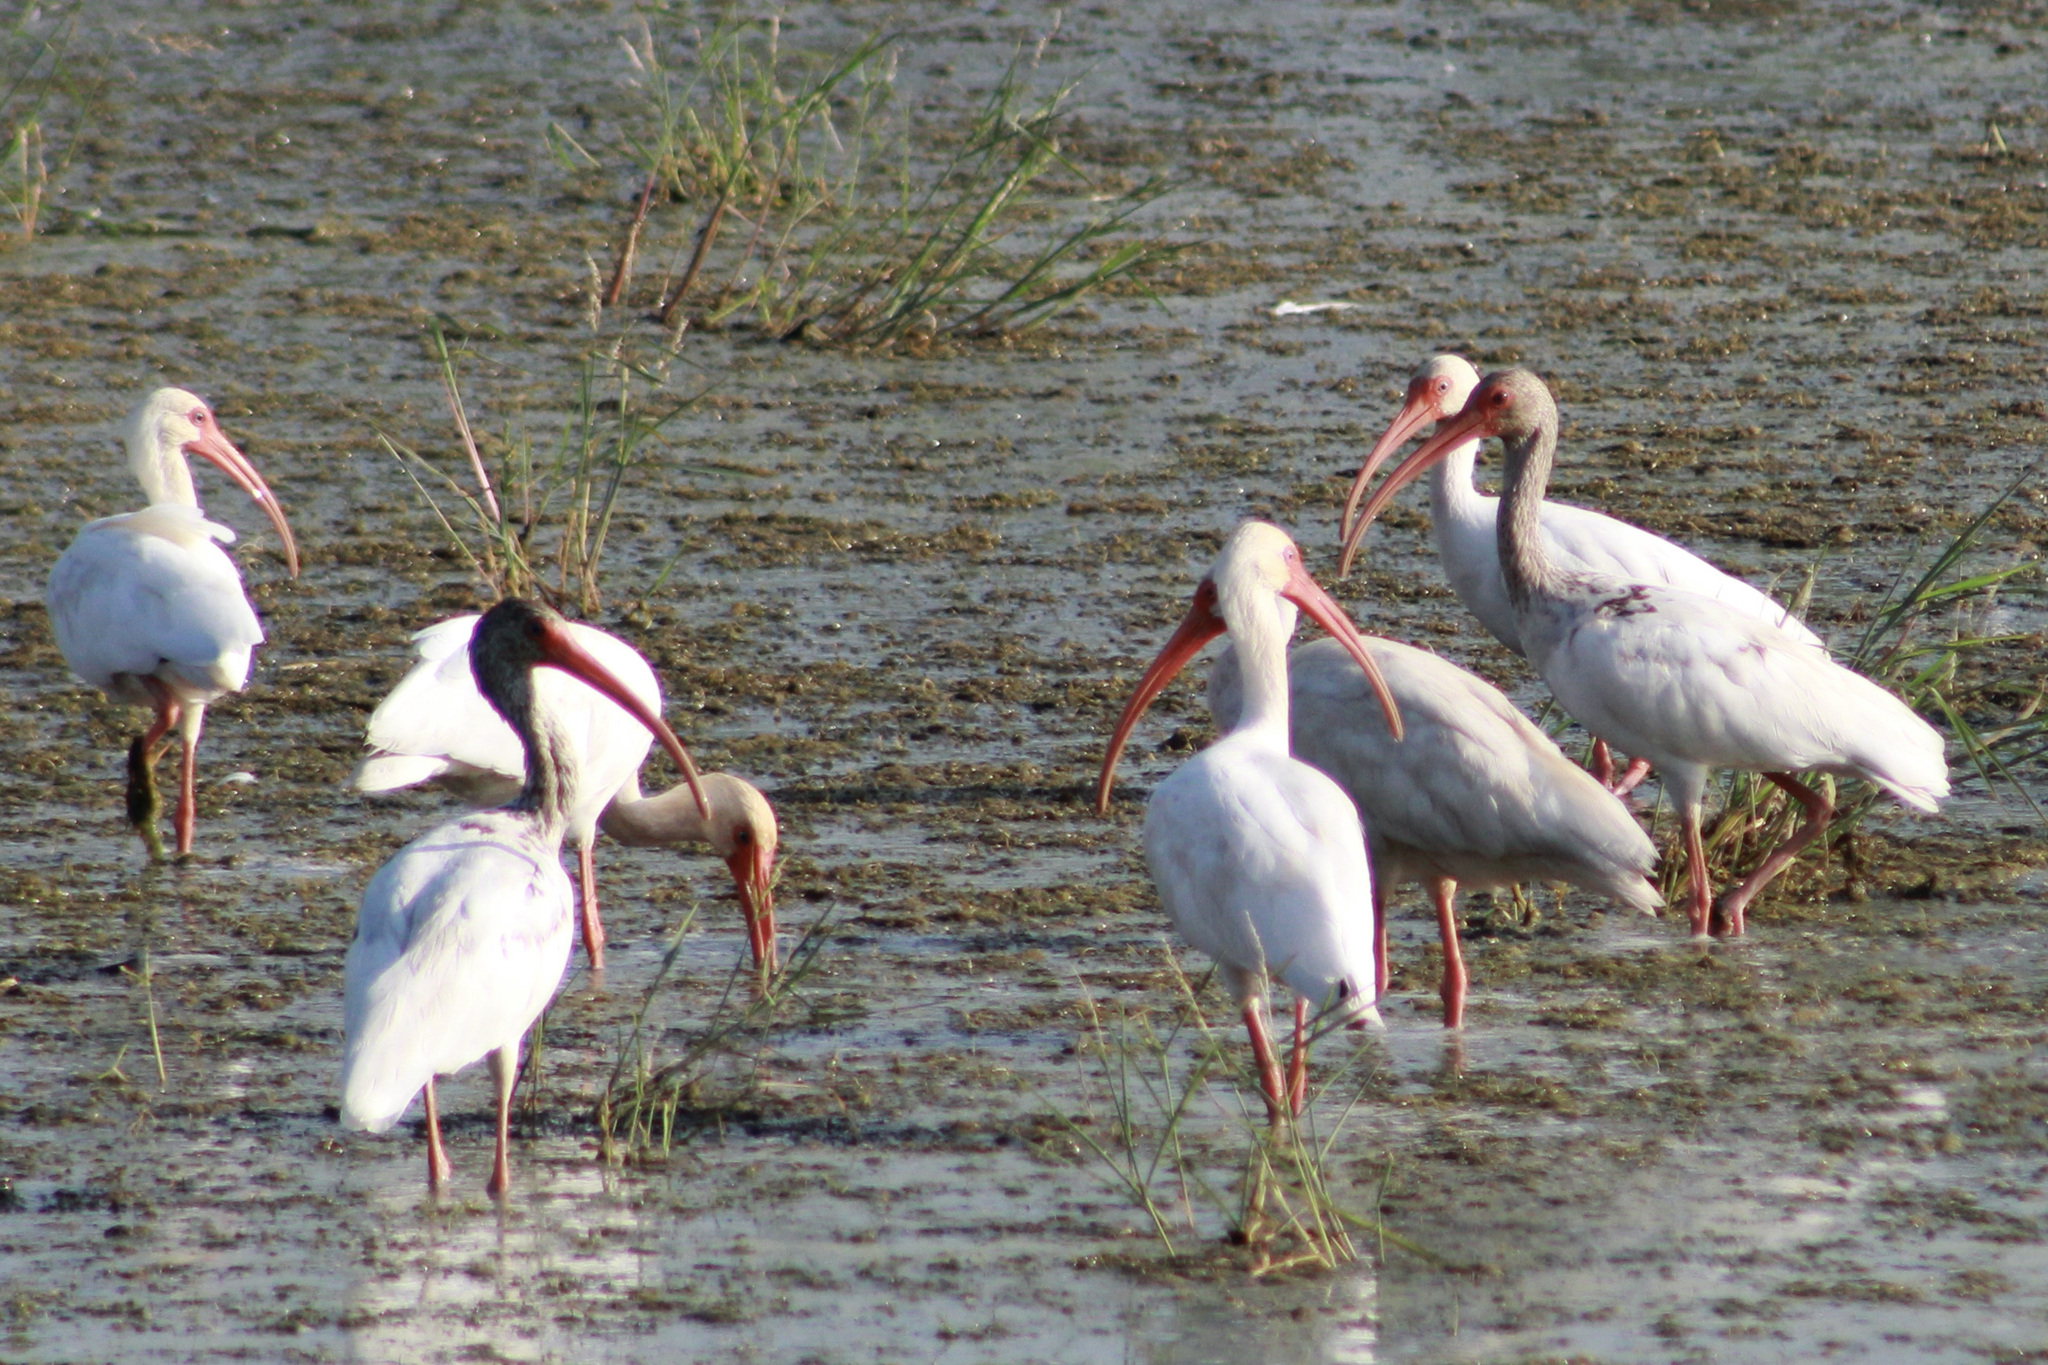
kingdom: Animalia
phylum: Chordata
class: Aves
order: Pelecaniformes
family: Threskiornithidae
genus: Eudocimus
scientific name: Eudocimus albus
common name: White ibis
